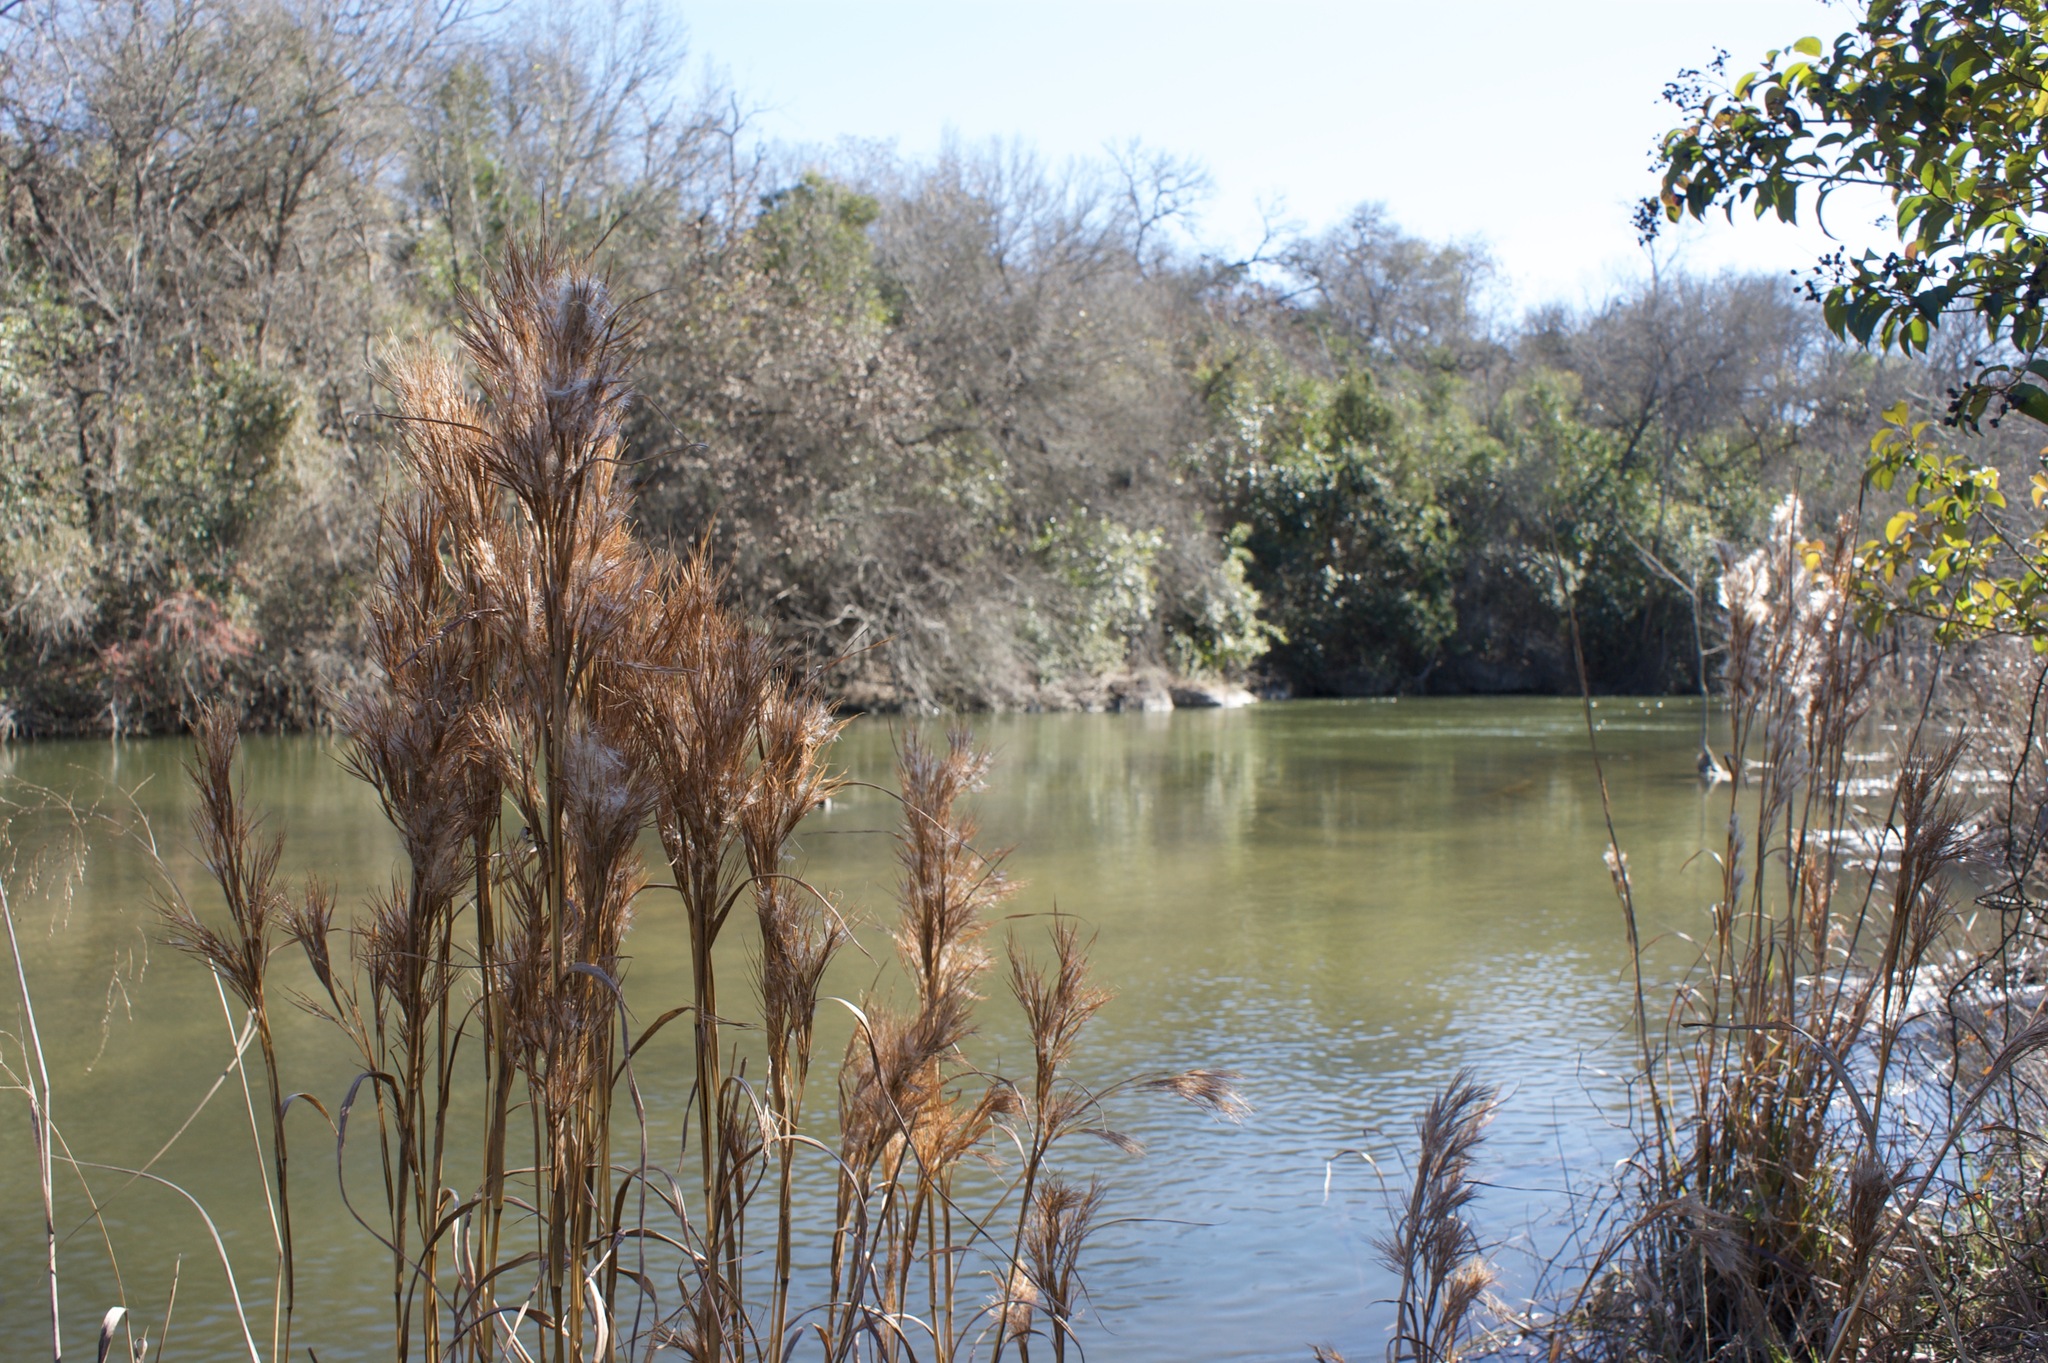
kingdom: Plantae
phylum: Tracheophyta
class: Liliopsida
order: Poales
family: Poaceae
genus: Andropogon
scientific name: Andropogon tenuispatheus
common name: Bushy bluestem
